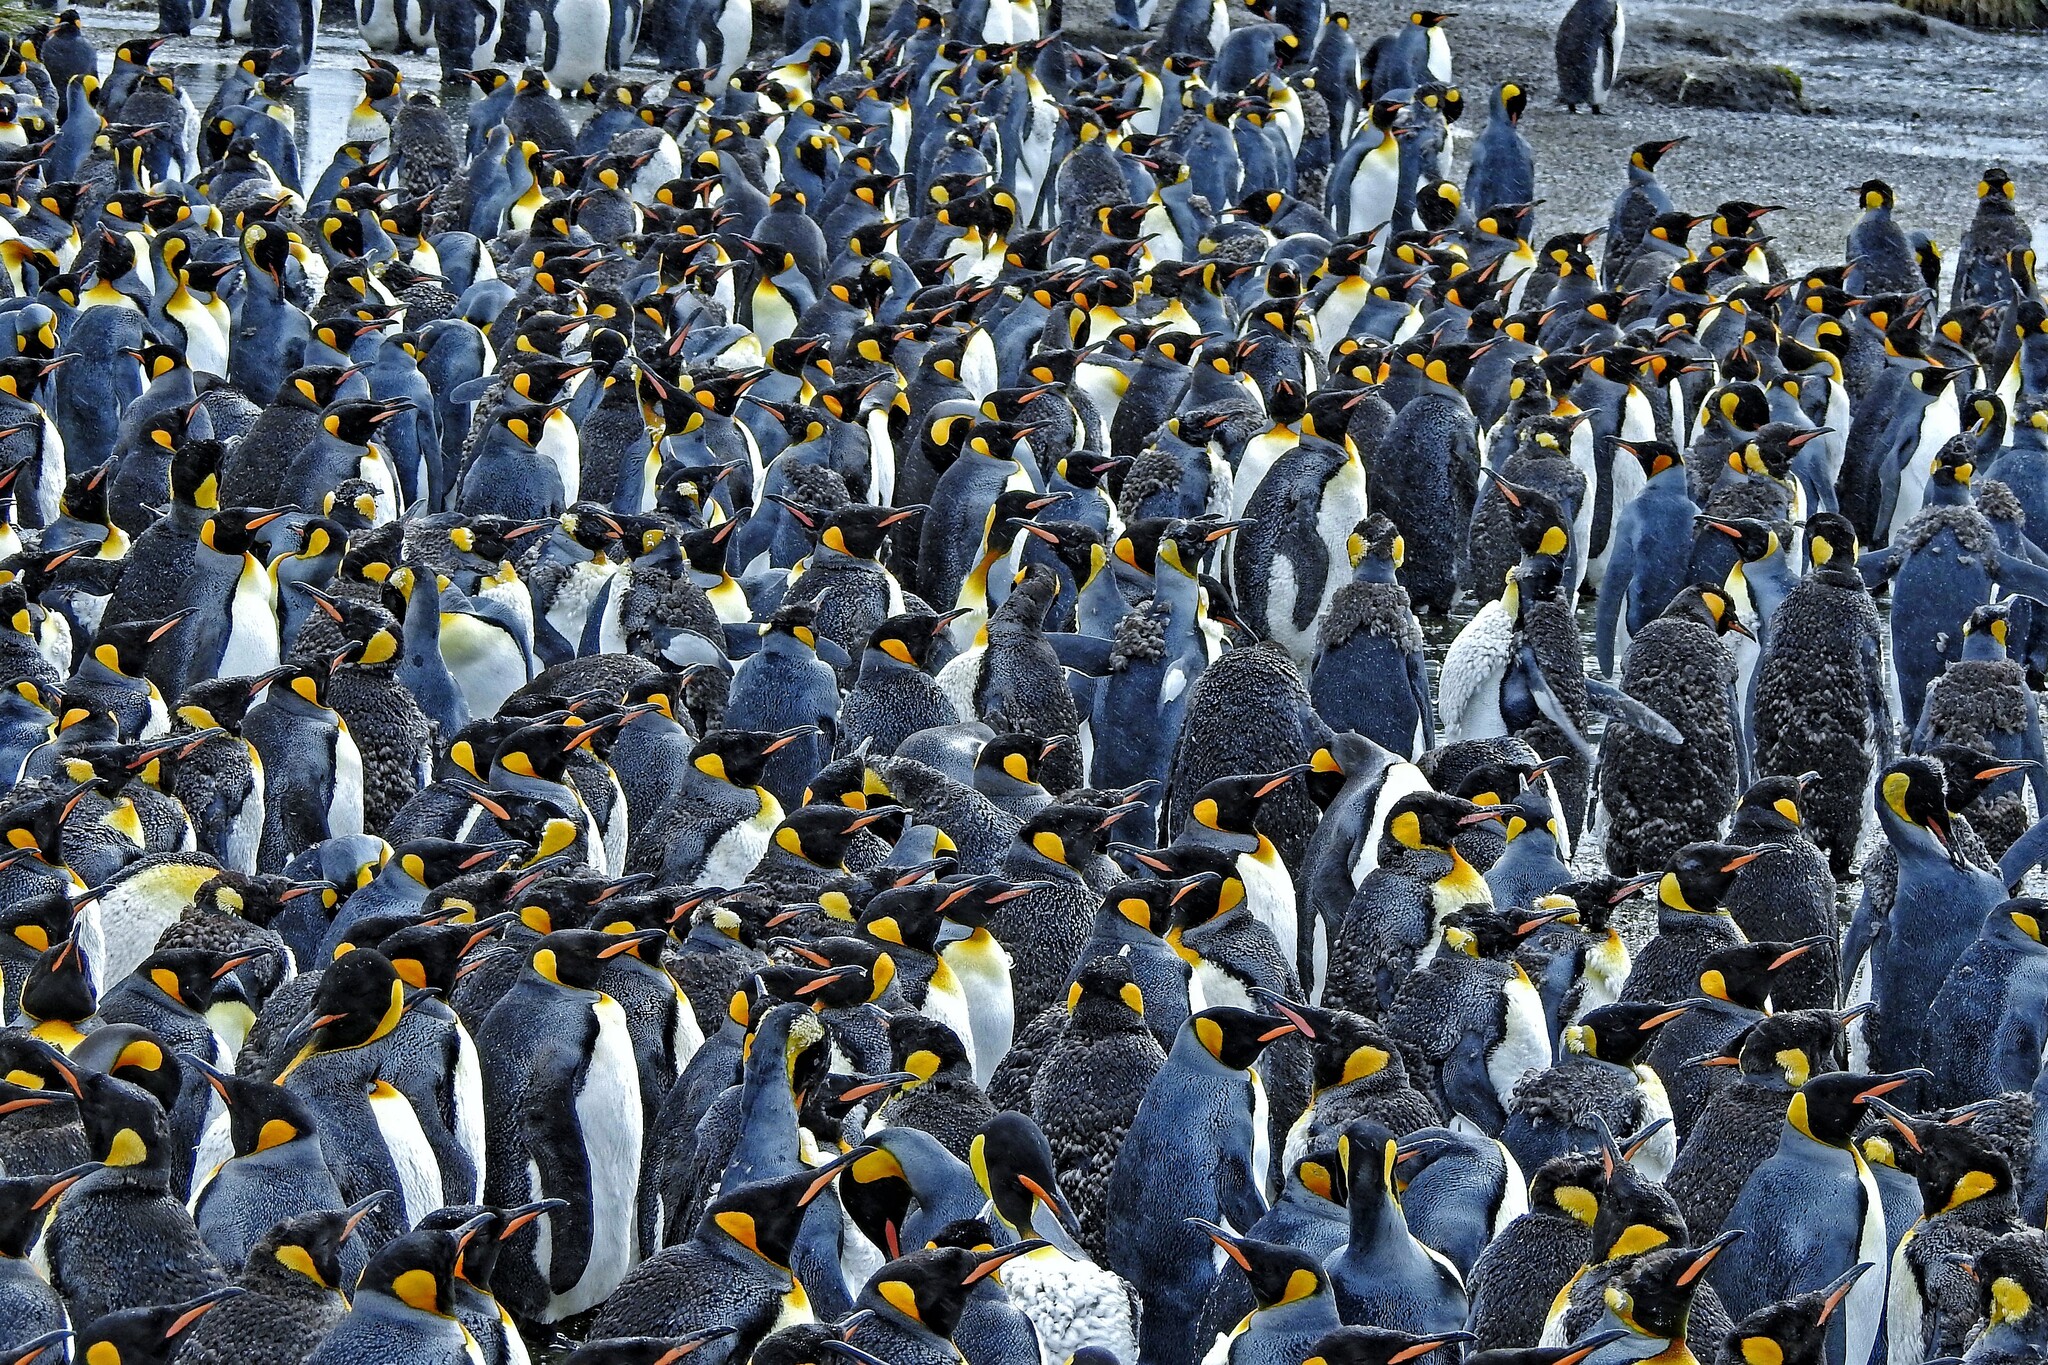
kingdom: Animalia
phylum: Chordata
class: Aves
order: Sphenisciformes
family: Spheniscidae
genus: Aptenodytes
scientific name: Aptenodytes patagonicus
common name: King penguin
